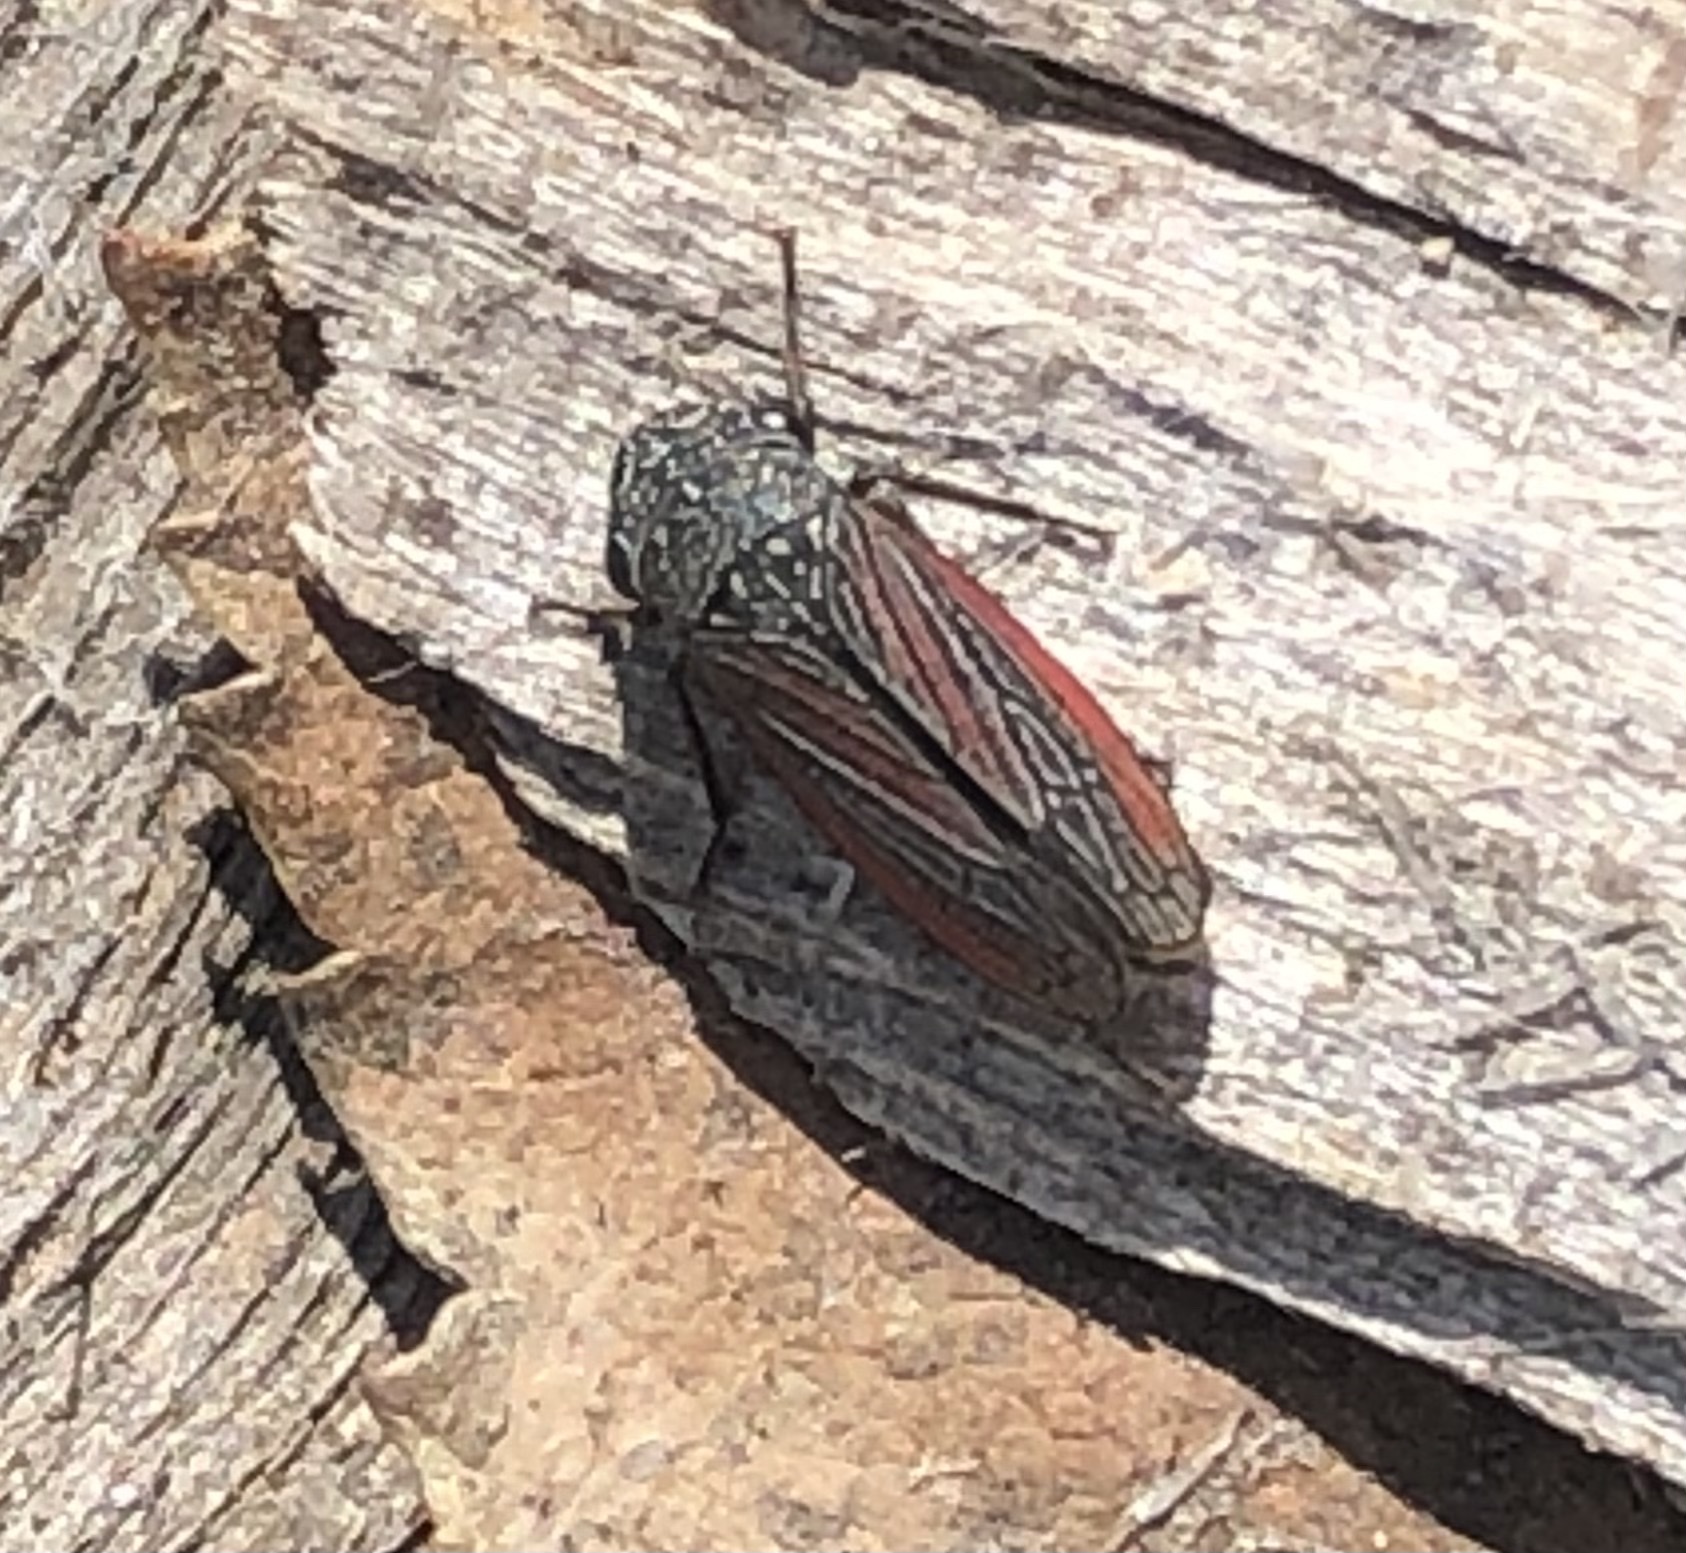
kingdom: Animalia
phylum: Arthropoda
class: Insecta
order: Hemiptera
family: Cicadellidae
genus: Cuerna
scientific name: Cuerna striata
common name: Striped leafhopper
